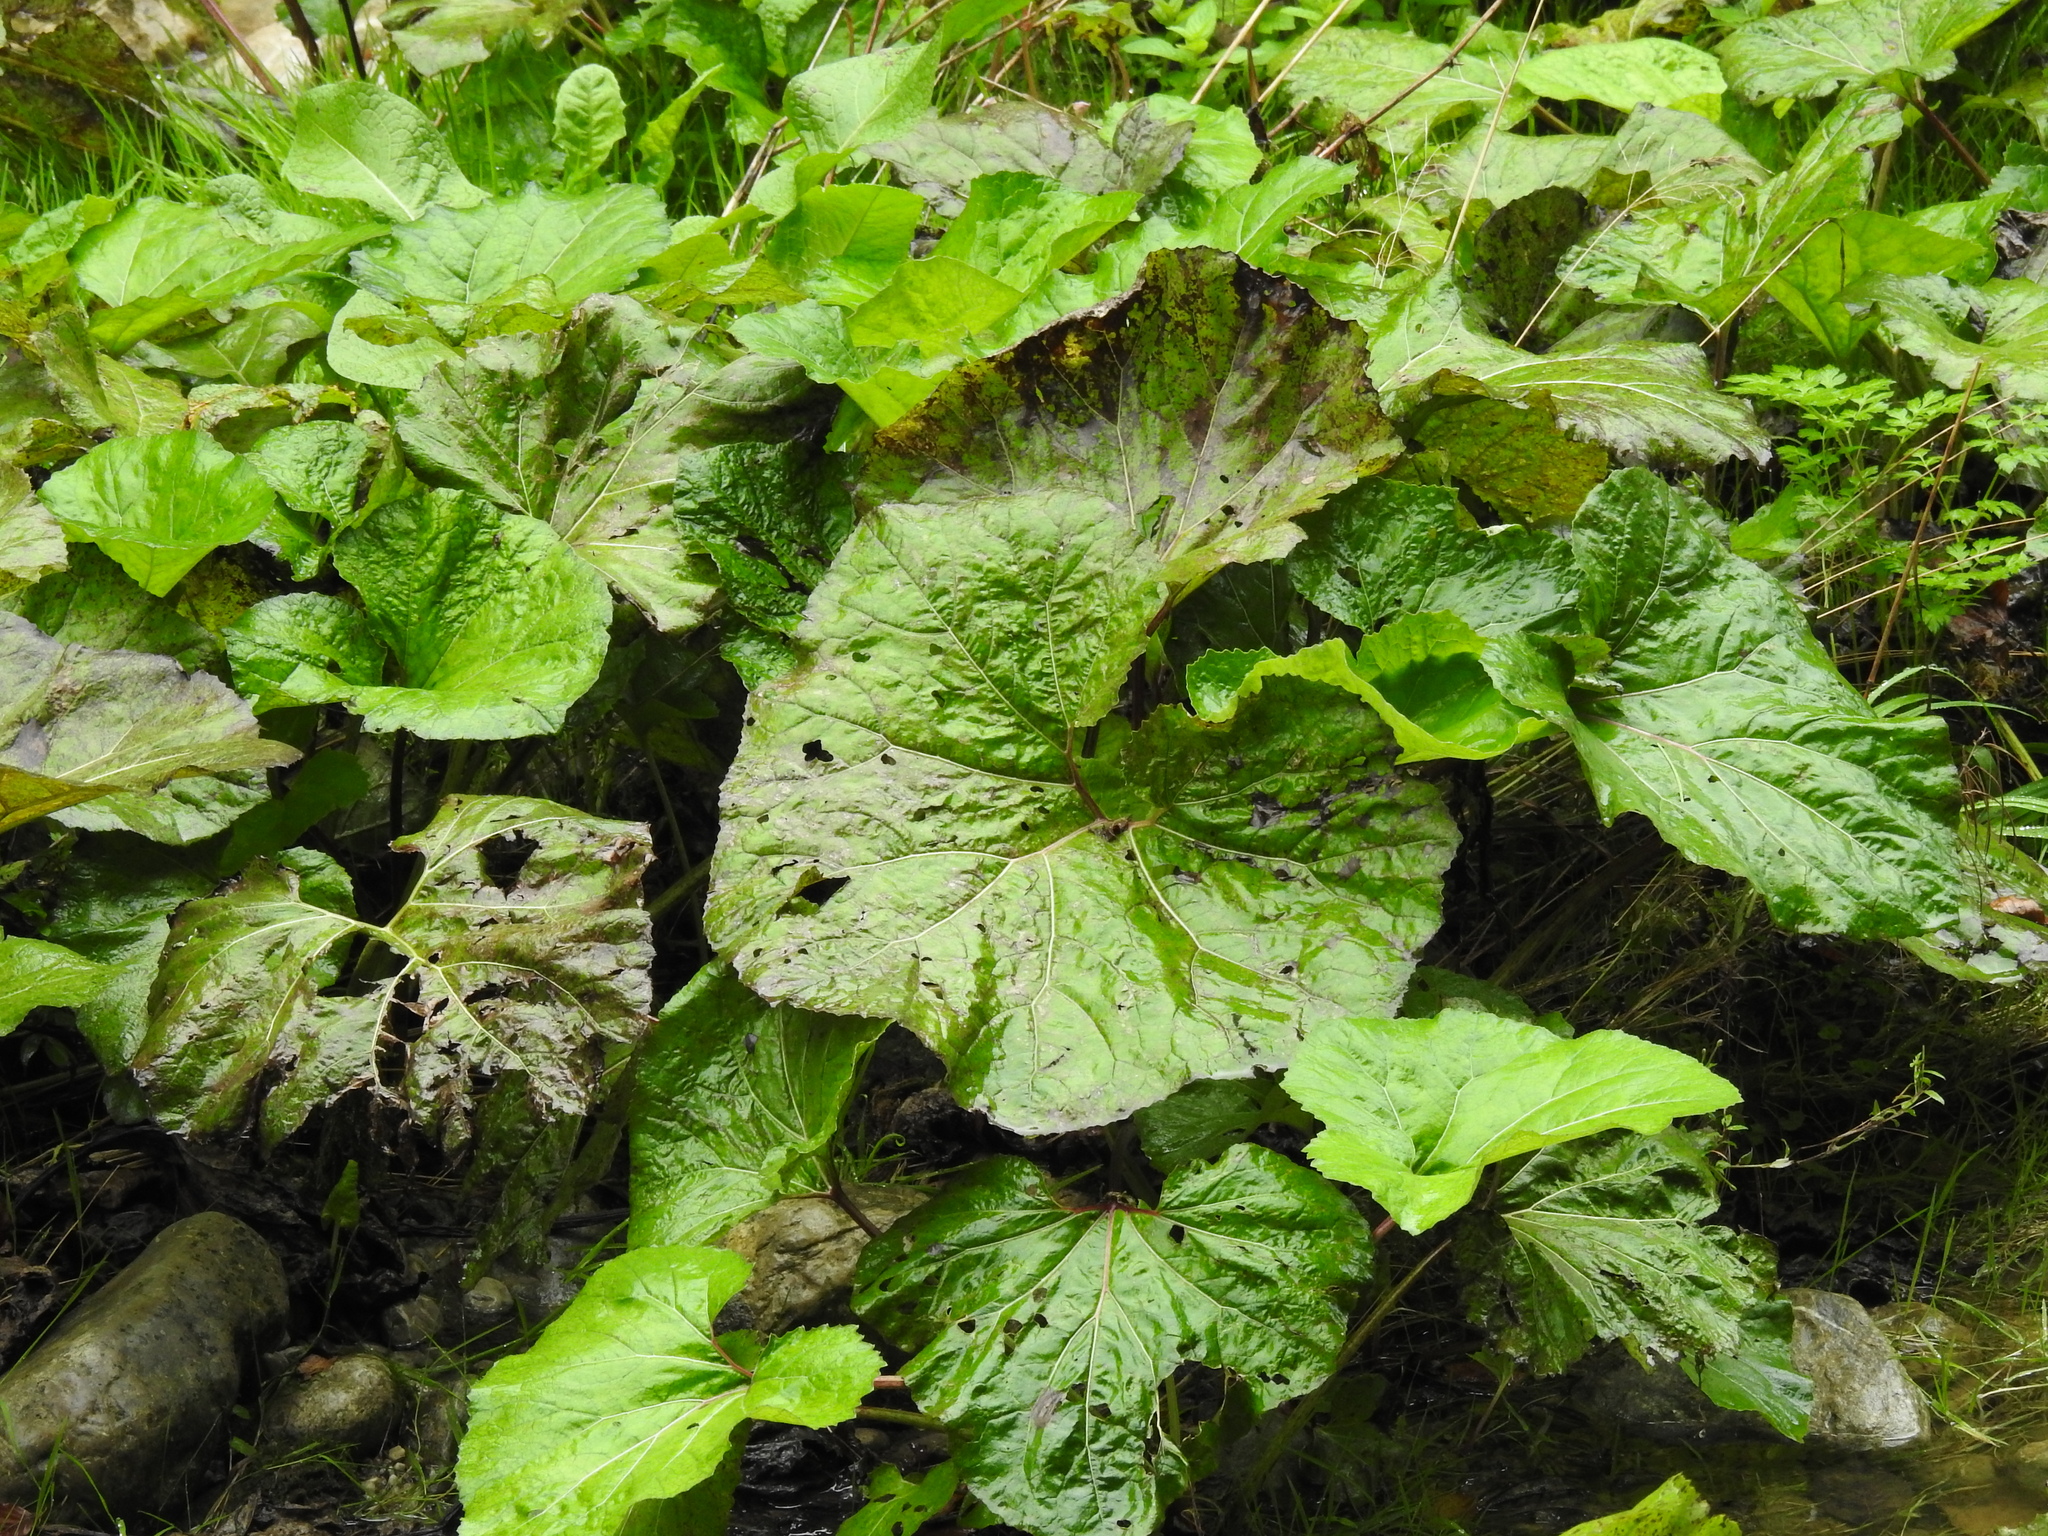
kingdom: Plantae
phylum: Tracheophyta
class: Magnoliopsida
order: Asterales
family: Asteraceae
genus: Petasites
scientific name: Petasites hybridus
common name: Butterbur
